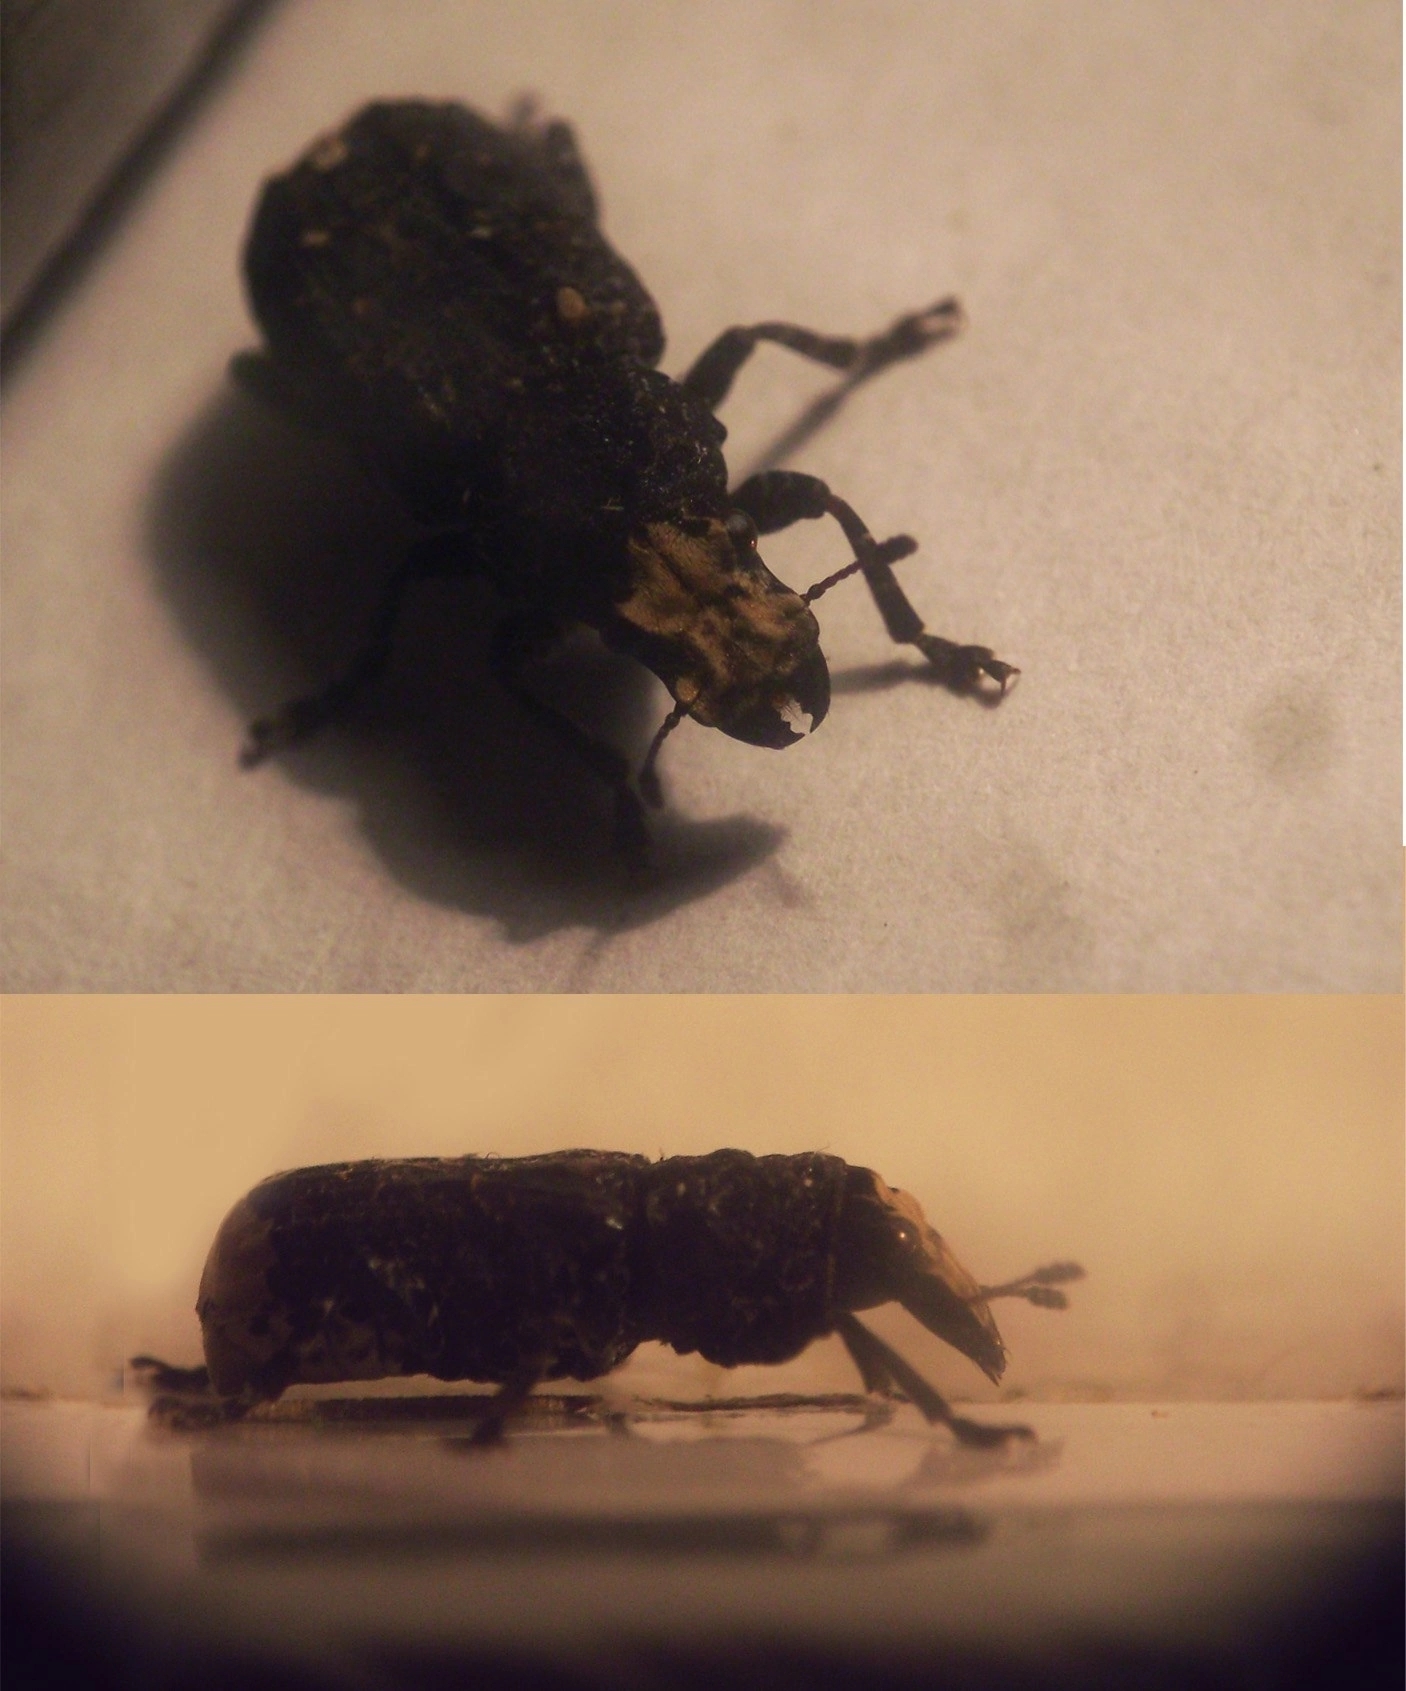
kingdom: Animalia
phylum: Arthropoda
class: Insecta
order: Coleoptera
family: Anthribidae
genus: Platyrhinus
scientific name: Platyrhinus resinosus
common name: Cramp-ball fungus weevil
